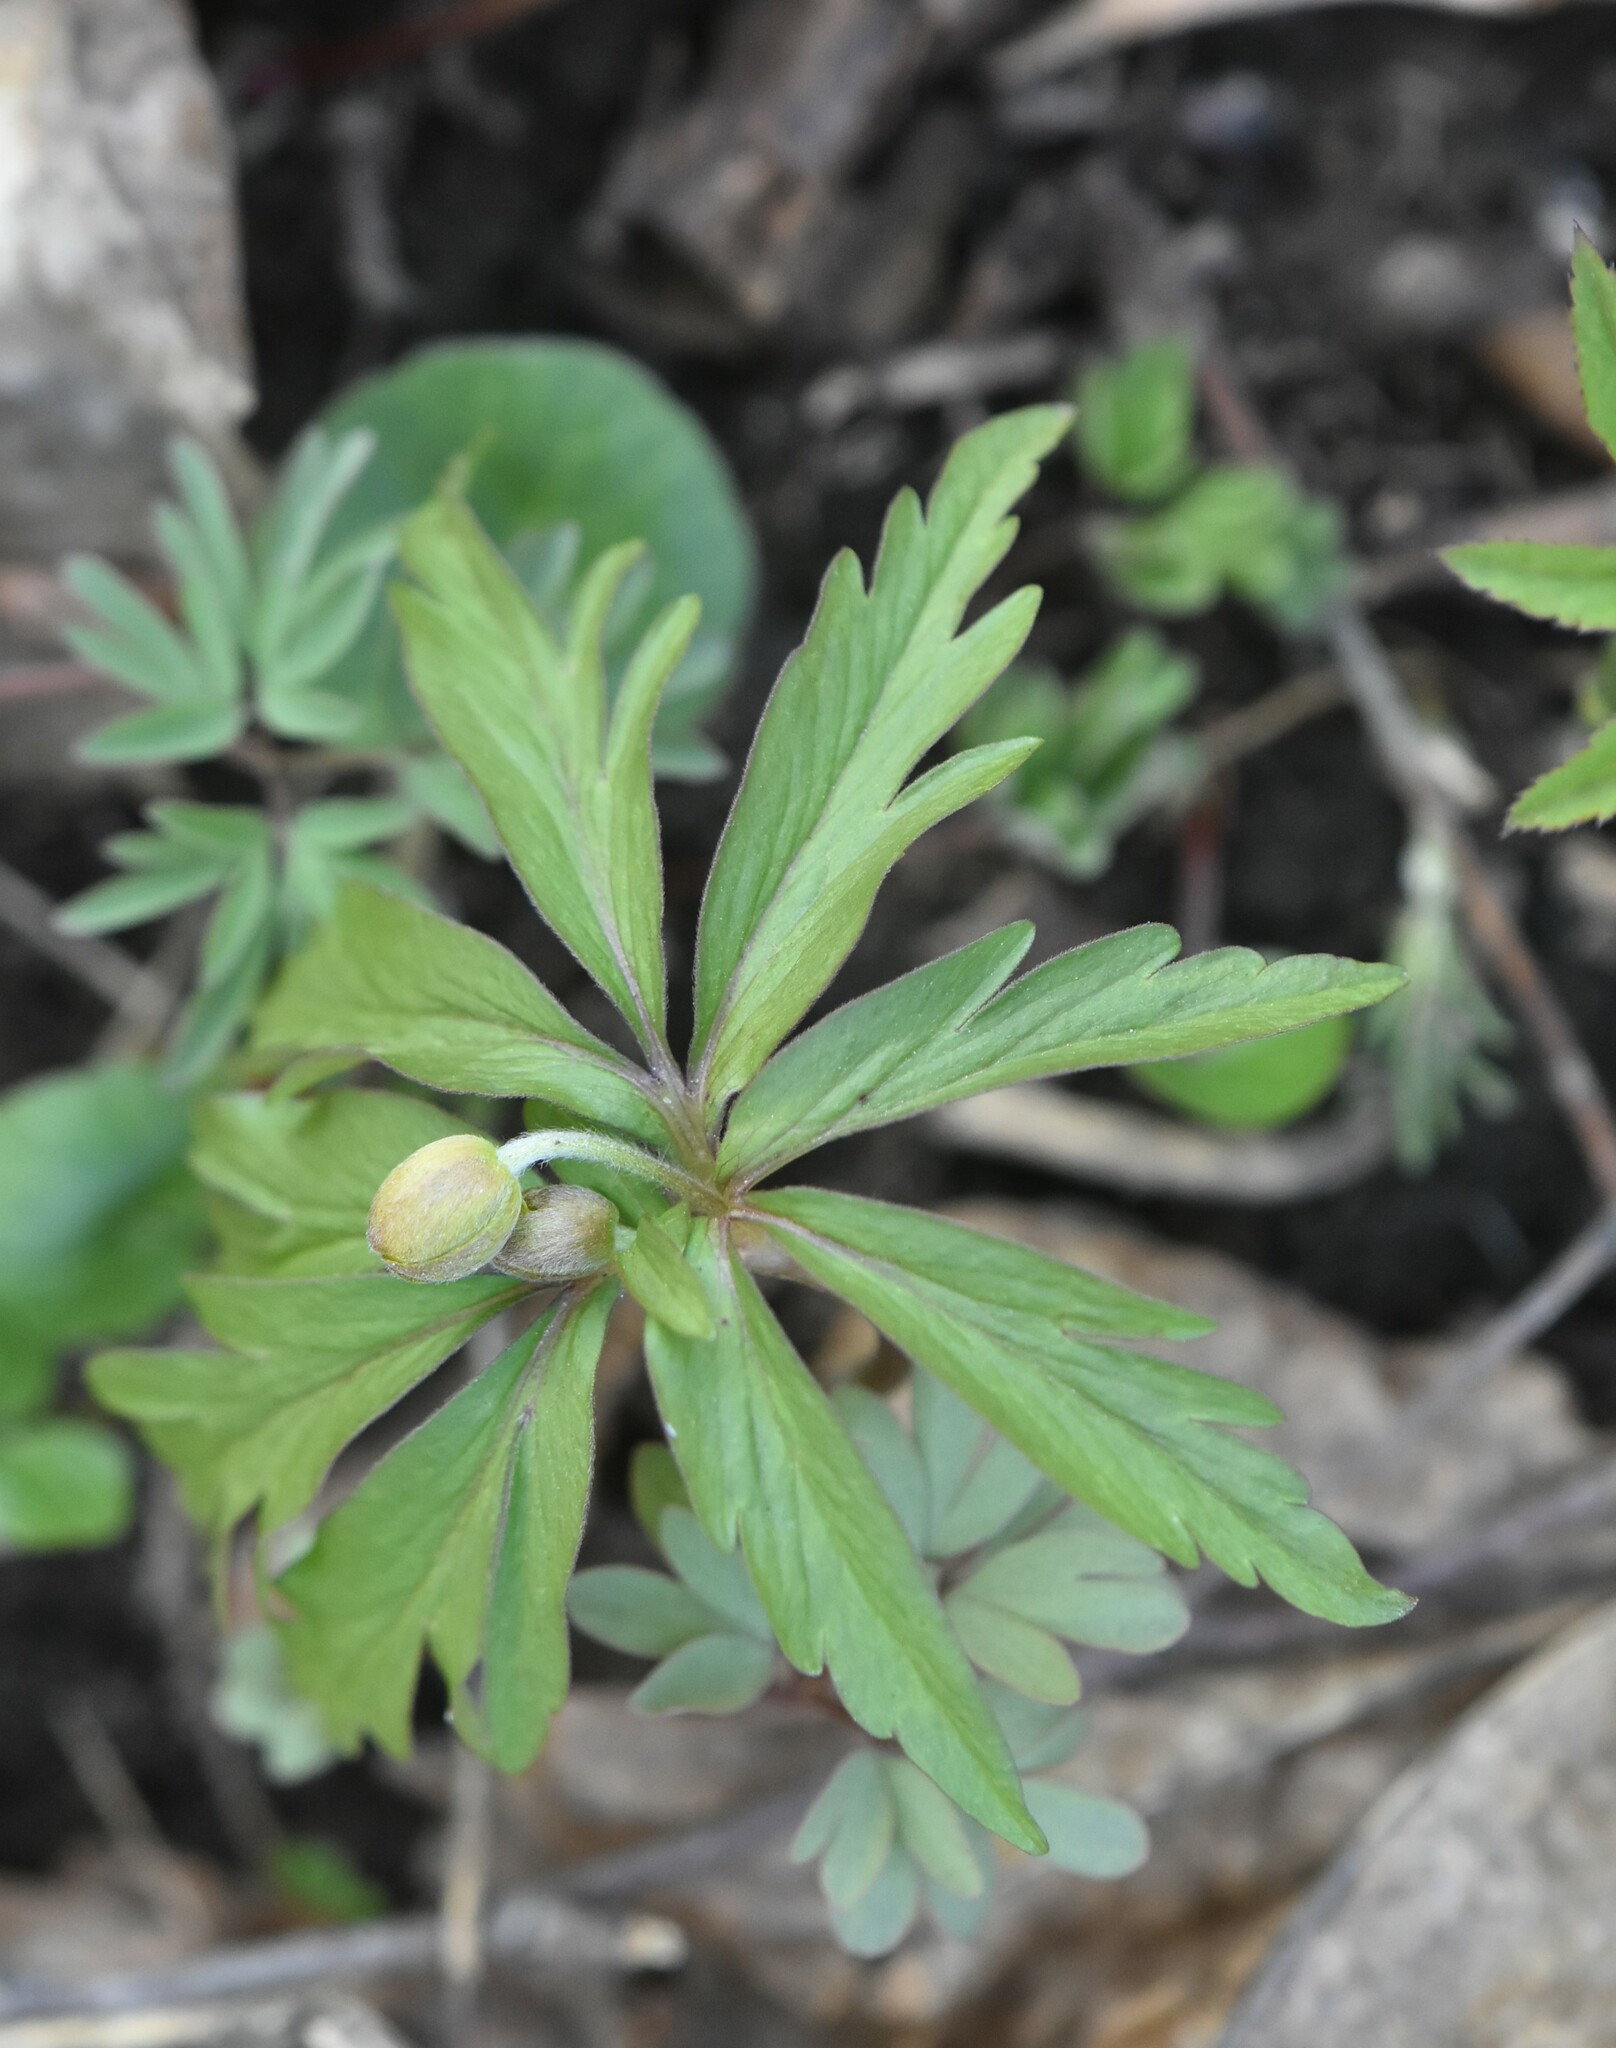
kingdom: Plantae
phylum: Tracheophyta
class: Magnoliopsida
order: Ranunculales
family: Ranunculaceae
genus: Anemone
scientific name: Anemone ranunculoides
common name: Yellow anemone
